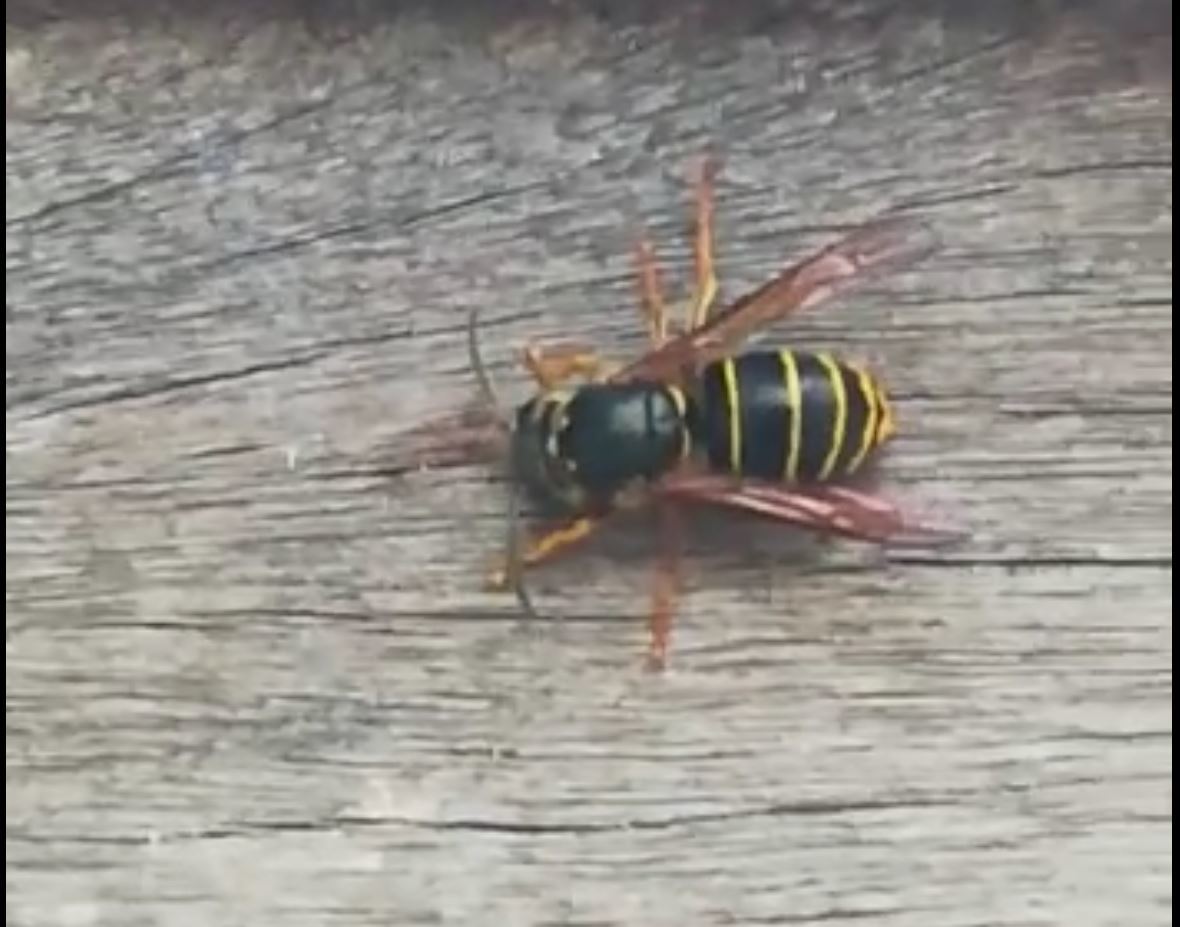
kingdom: Animalia
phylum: Arthropoda
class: Insecta
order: Hymenoptera
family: Vespidae
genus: Dolichovespula
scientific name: Dolichovespula media
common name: Median wasp
